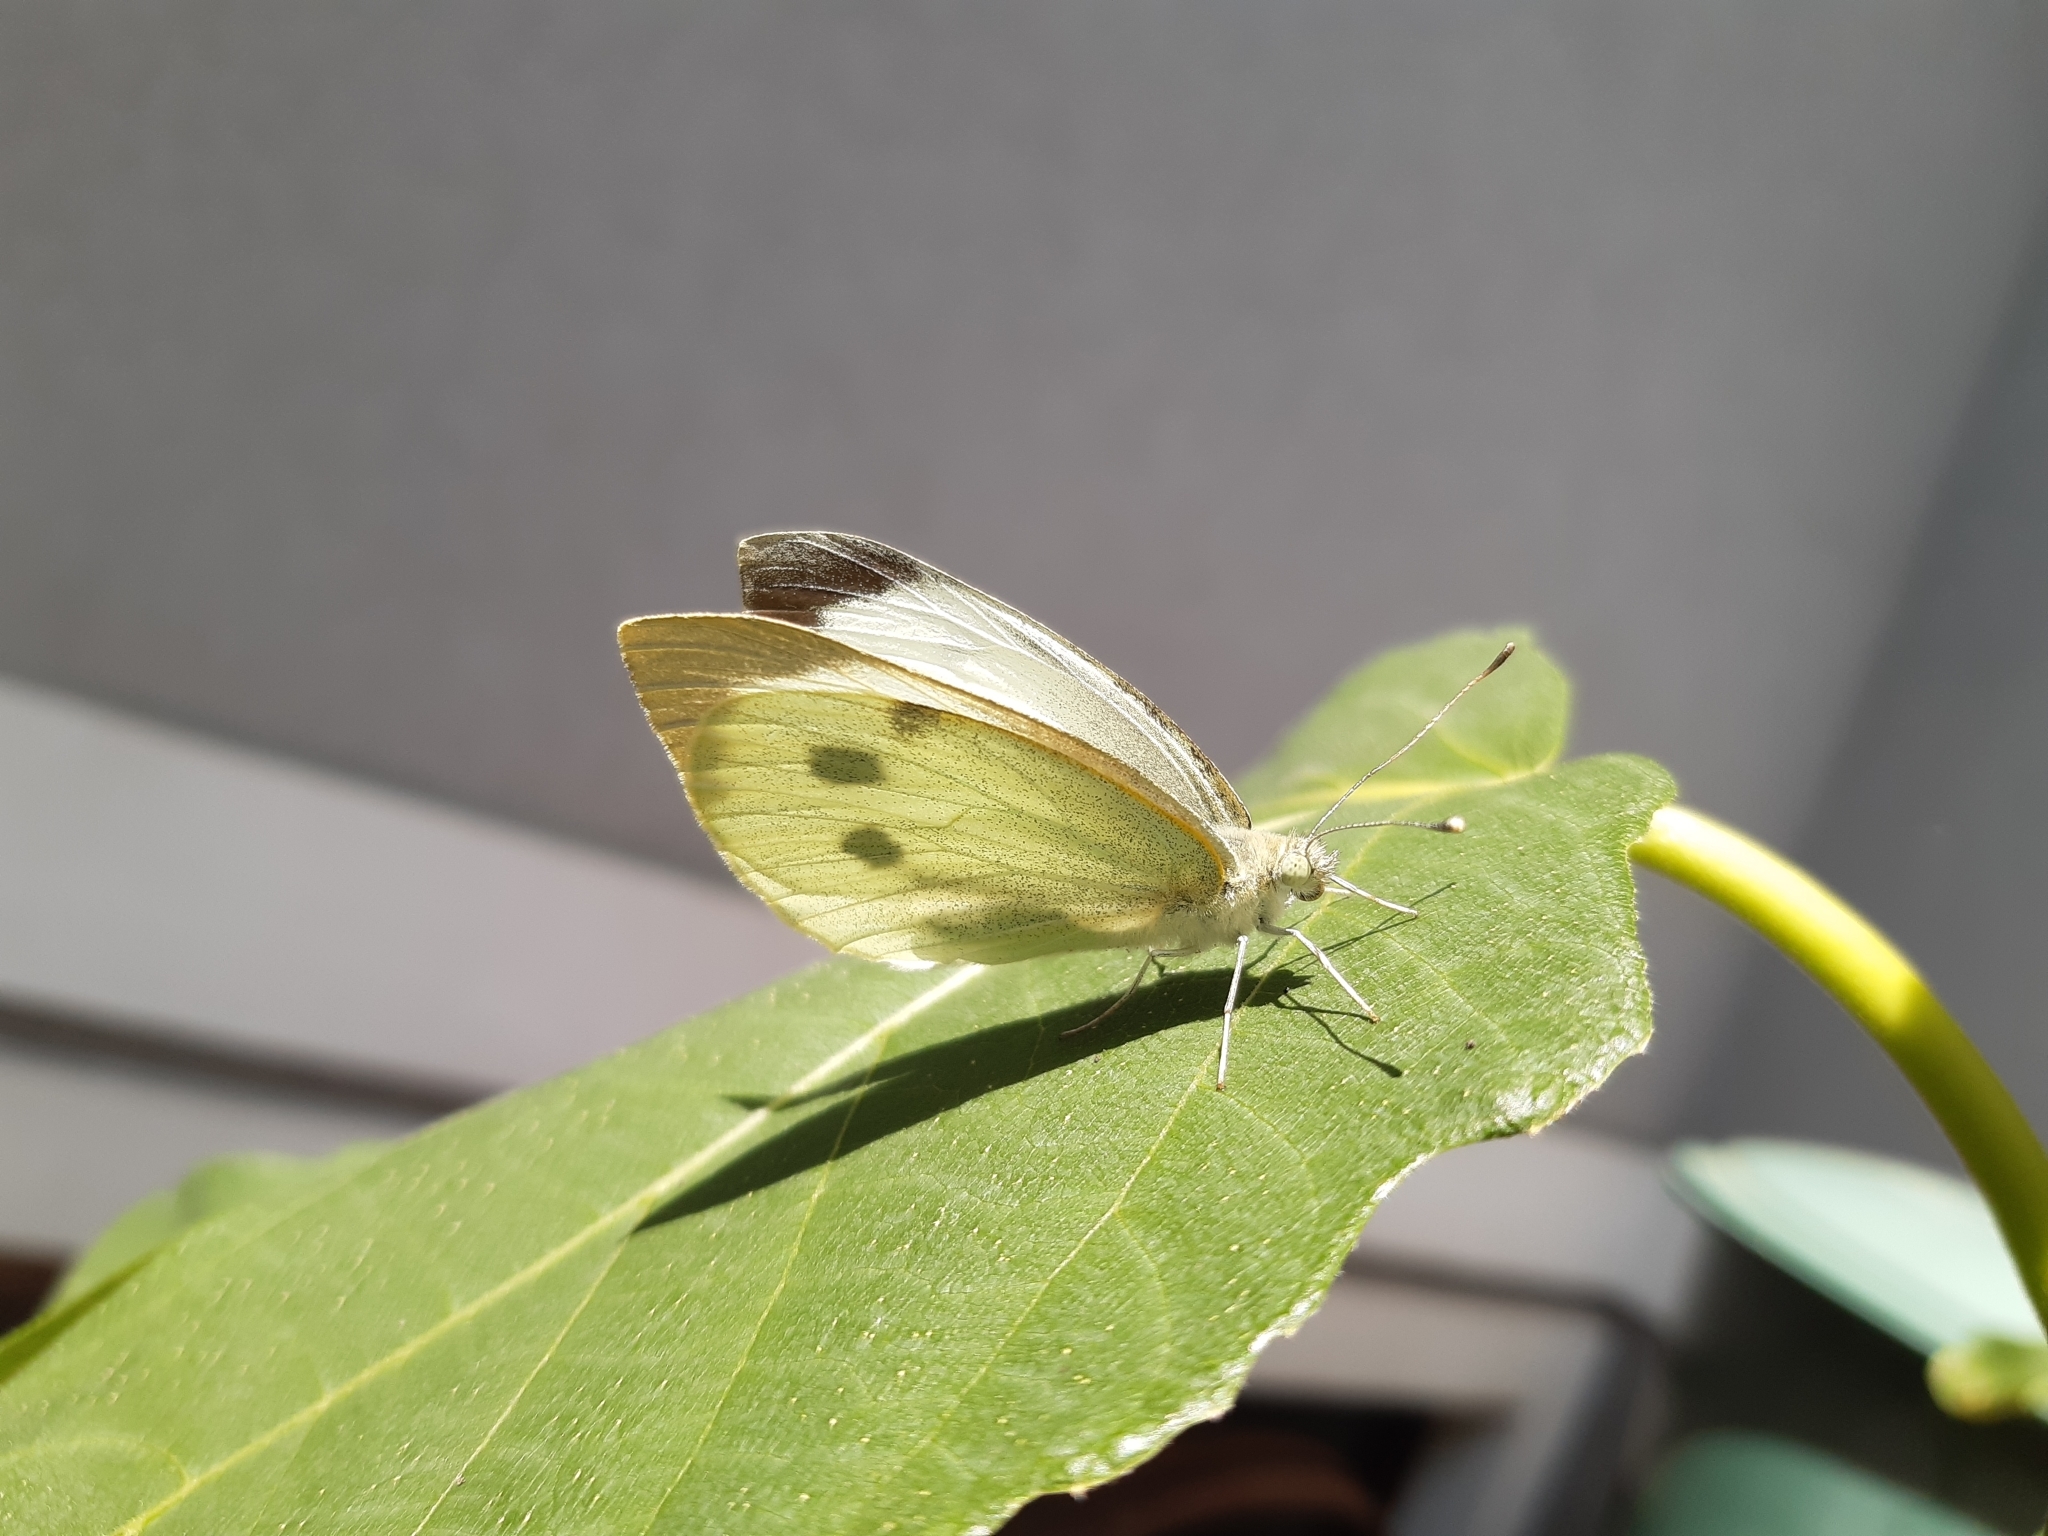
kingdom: Animalia
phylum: Arthropoda
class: Insecta
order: Lepidoptera
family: Pieridae
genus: Pieris
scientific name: Pieris brassicae
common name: Large white
